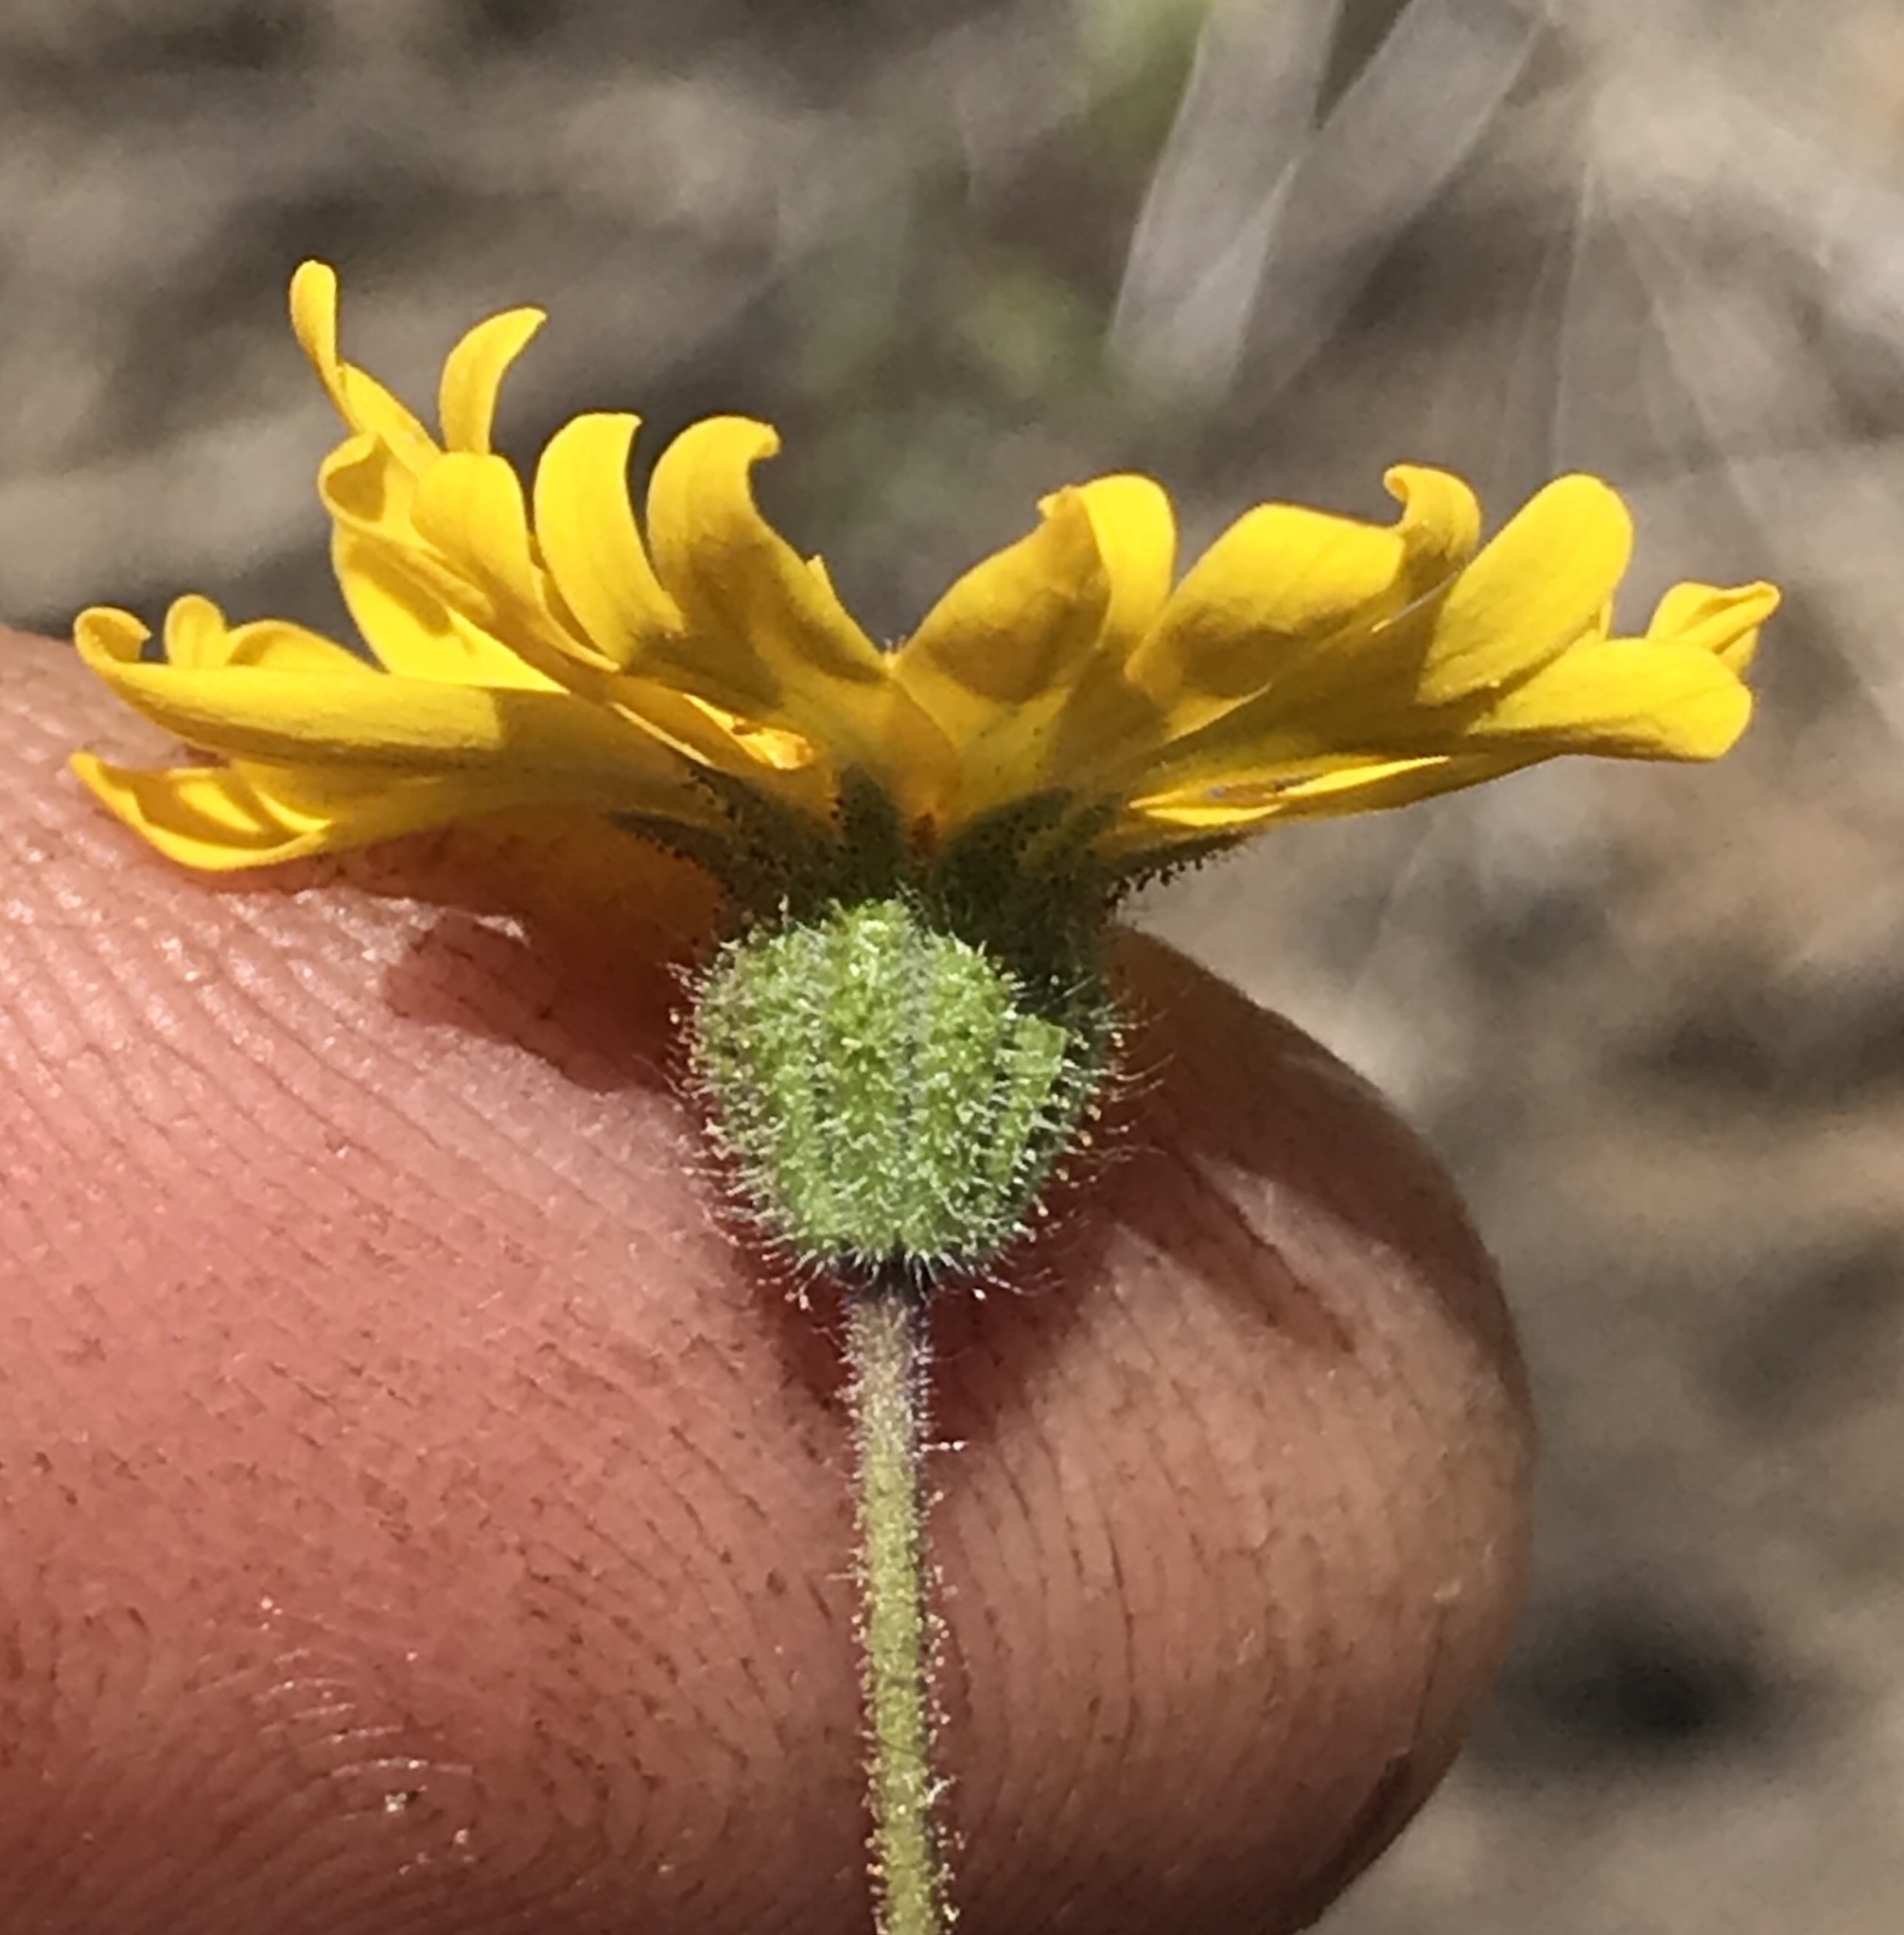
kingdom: Plantae
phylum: Tracheophyta
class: Magnoliopsida
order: Asterales
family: Asteraceae
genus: Madia
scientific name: Madia elegans
